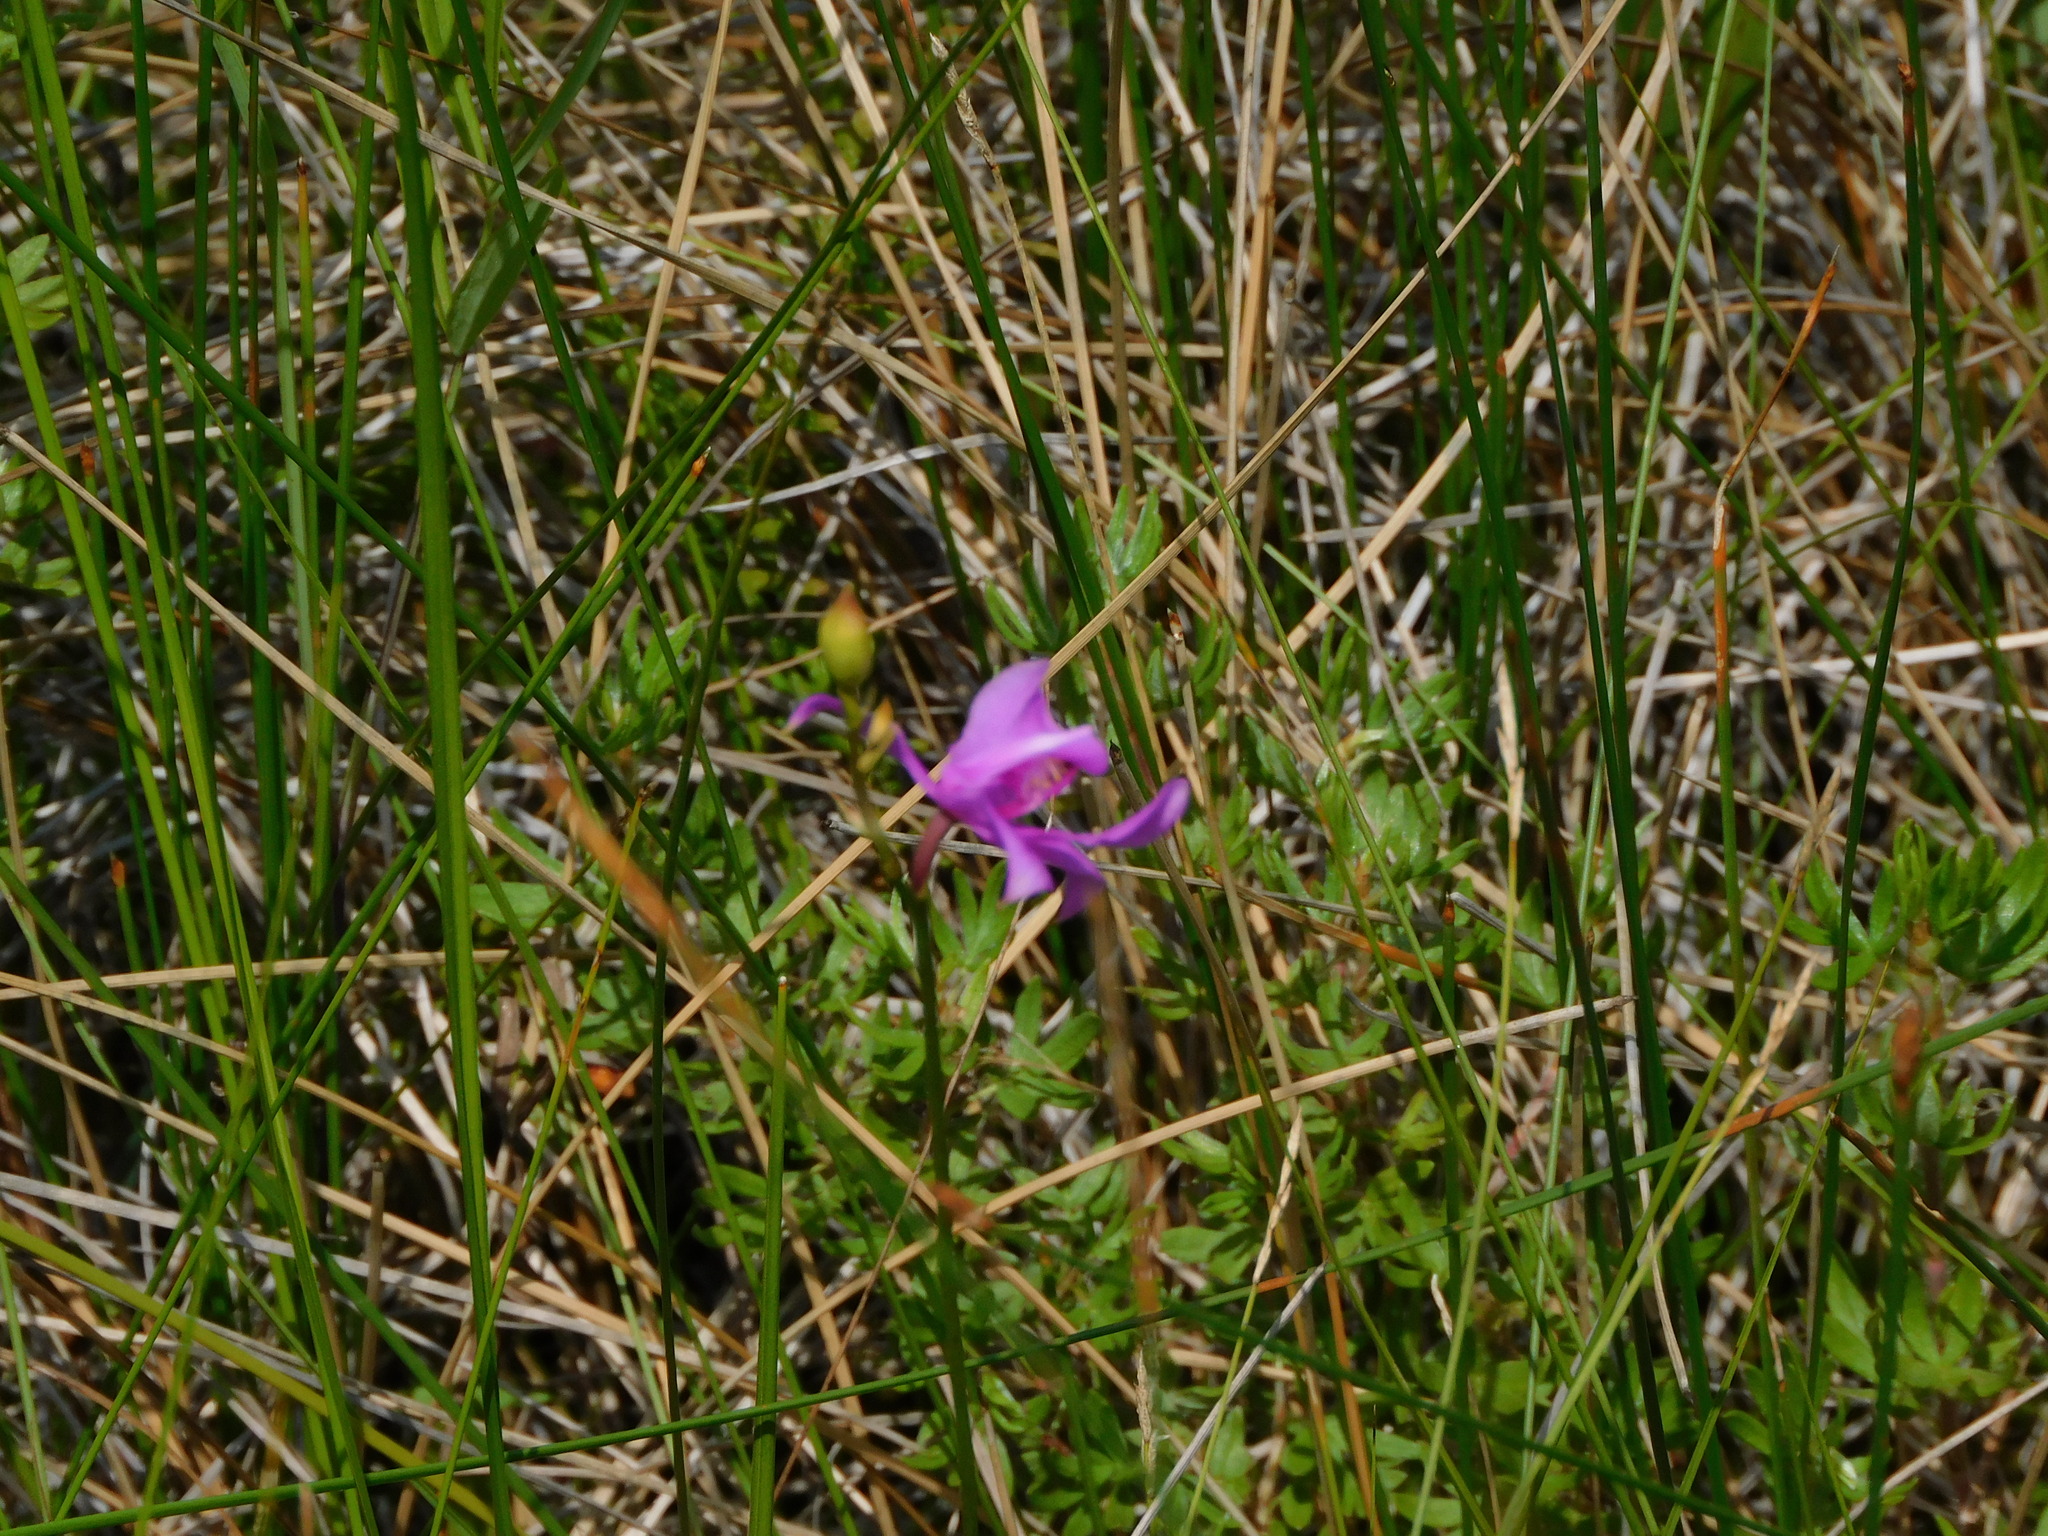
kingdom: Plantae
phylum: Tracheophyta
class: Liliopsida
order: Asparagales
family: Orchidaceae
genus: Calopogon
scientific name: Calopogon tuberosus
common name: Grass-pink
